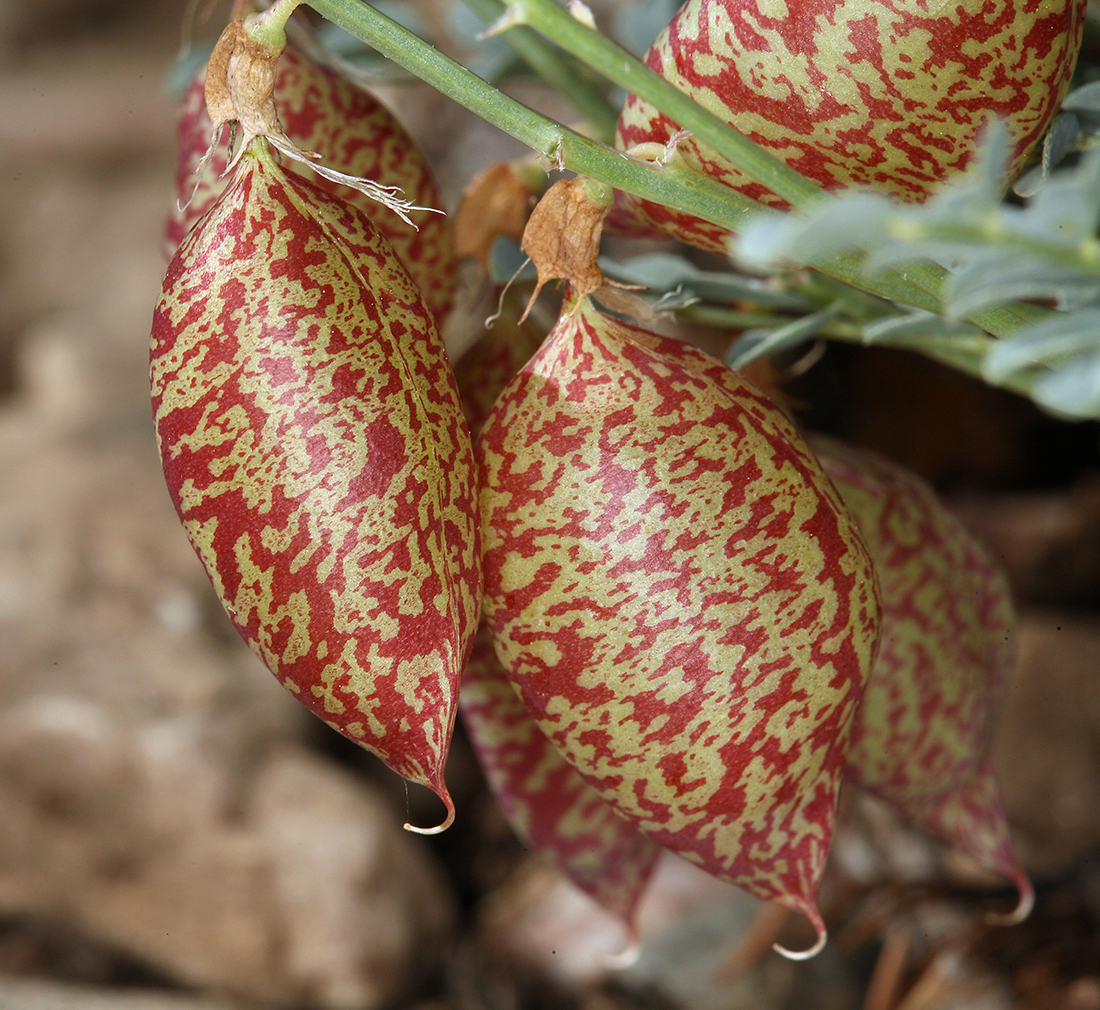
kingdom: Plantae
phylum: Tracheophyta
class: Magnoliopsida
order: Fabales
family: Fabaceae
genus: Astragalus
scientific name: Astragalus oophorus
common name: Egg milkvetch
